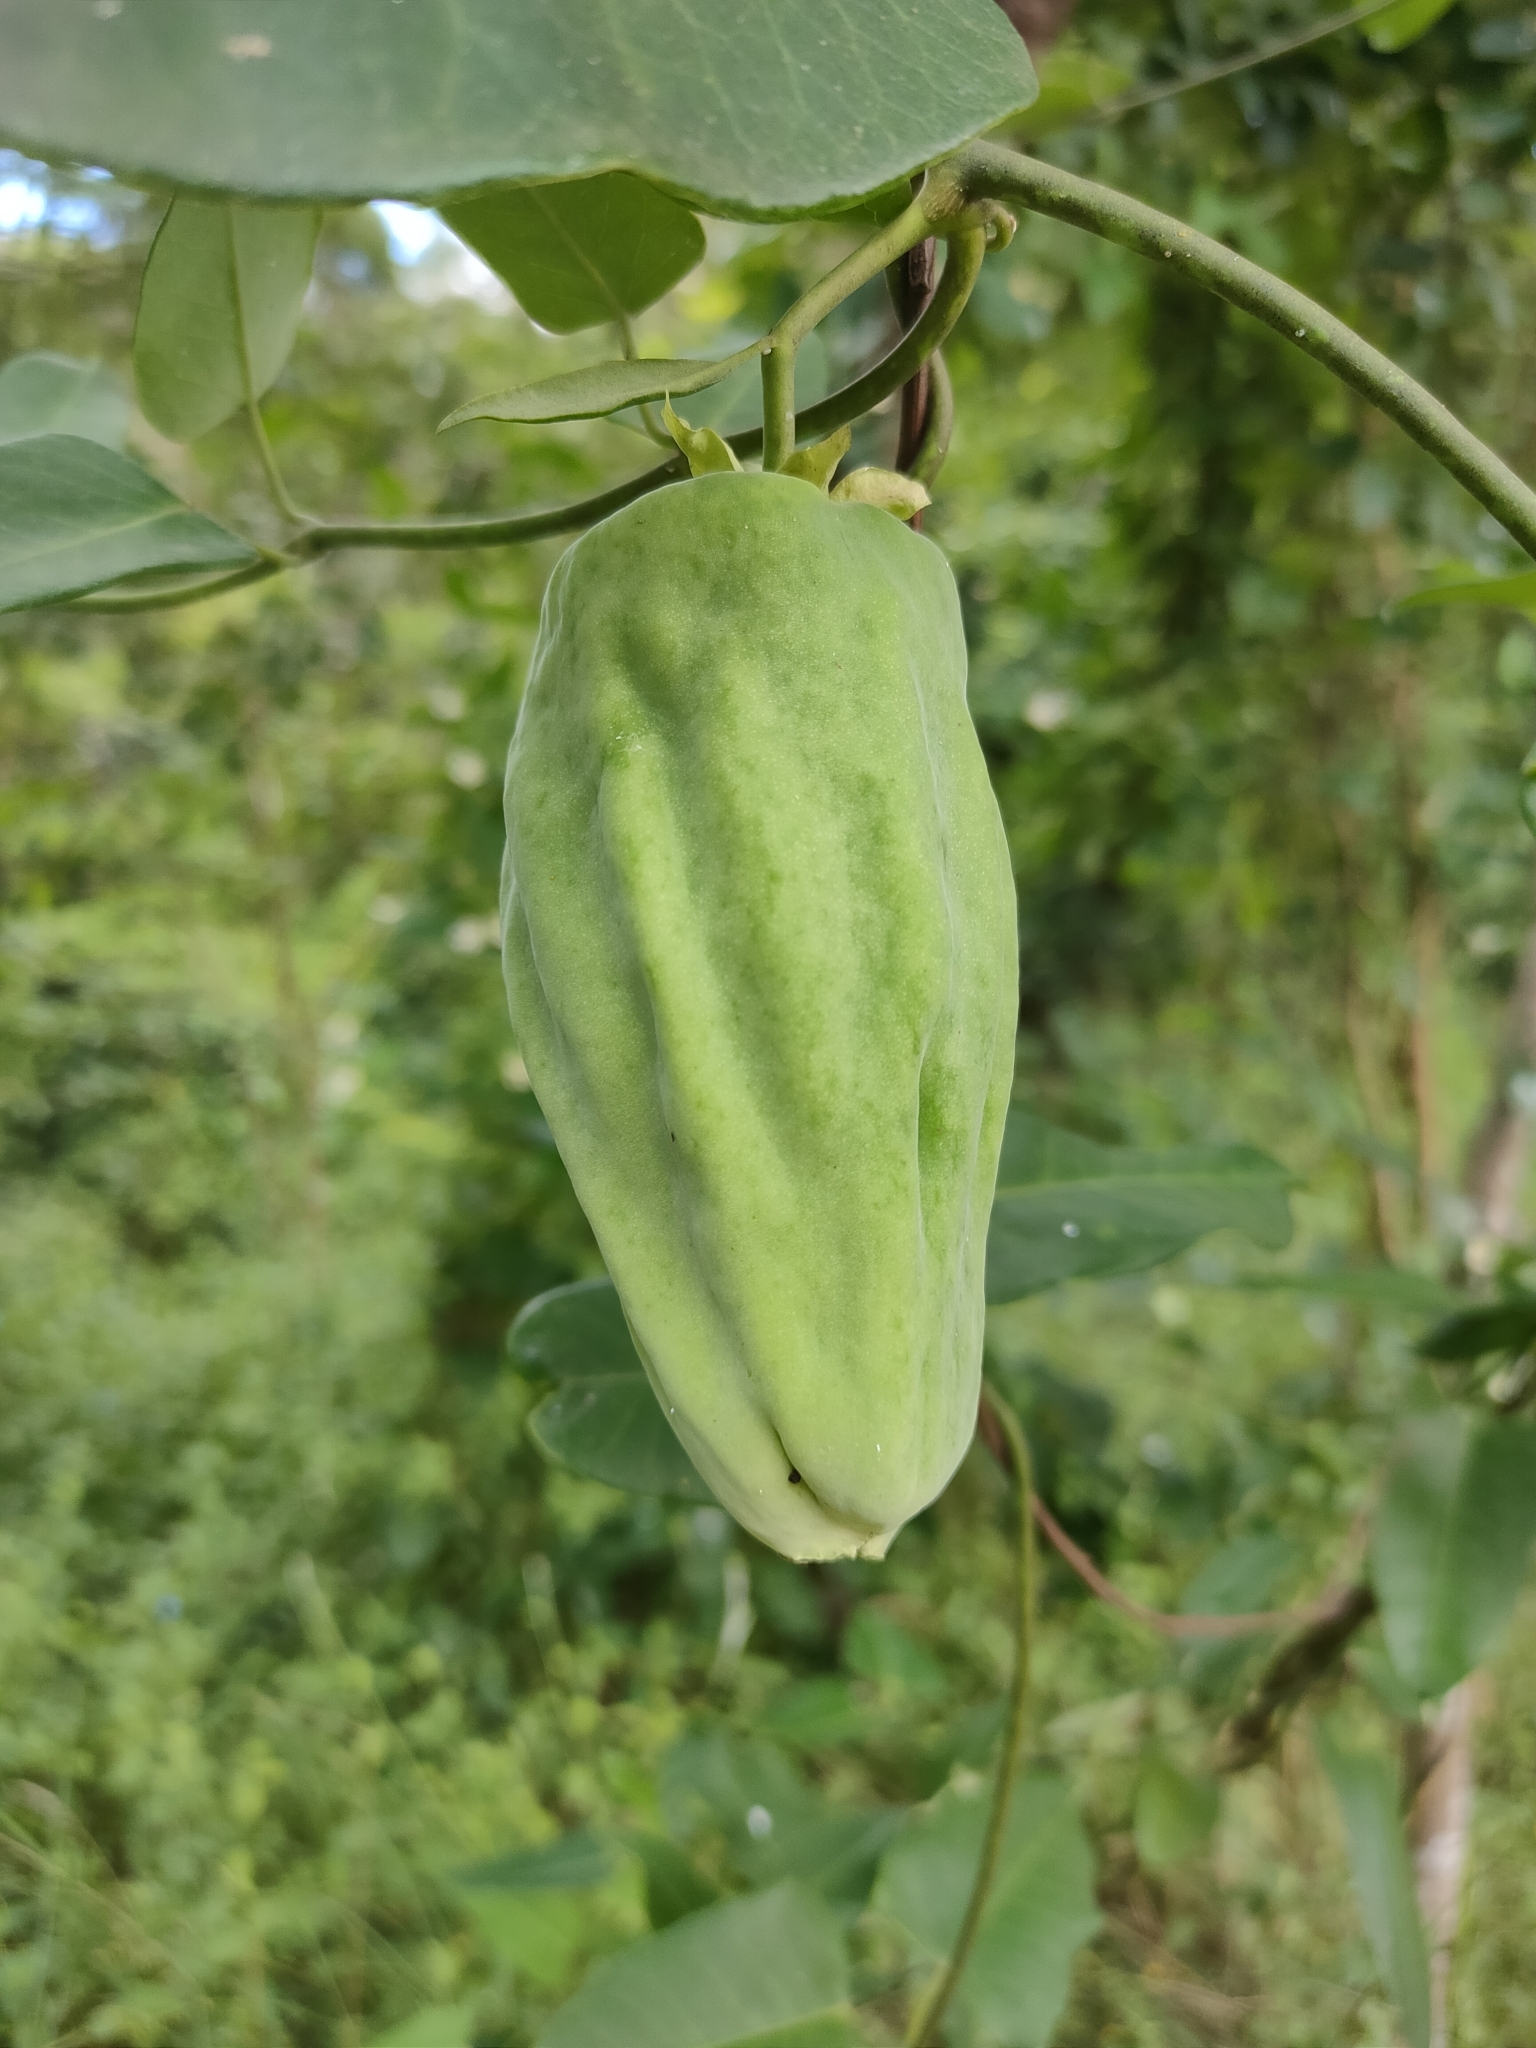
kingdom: Plantae
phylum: Tracheophyta
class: Magnoliopsida
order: Gentianales
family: Apocynaceae
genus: Araujia
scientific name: Araujia sericifera
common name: White bladderflower
